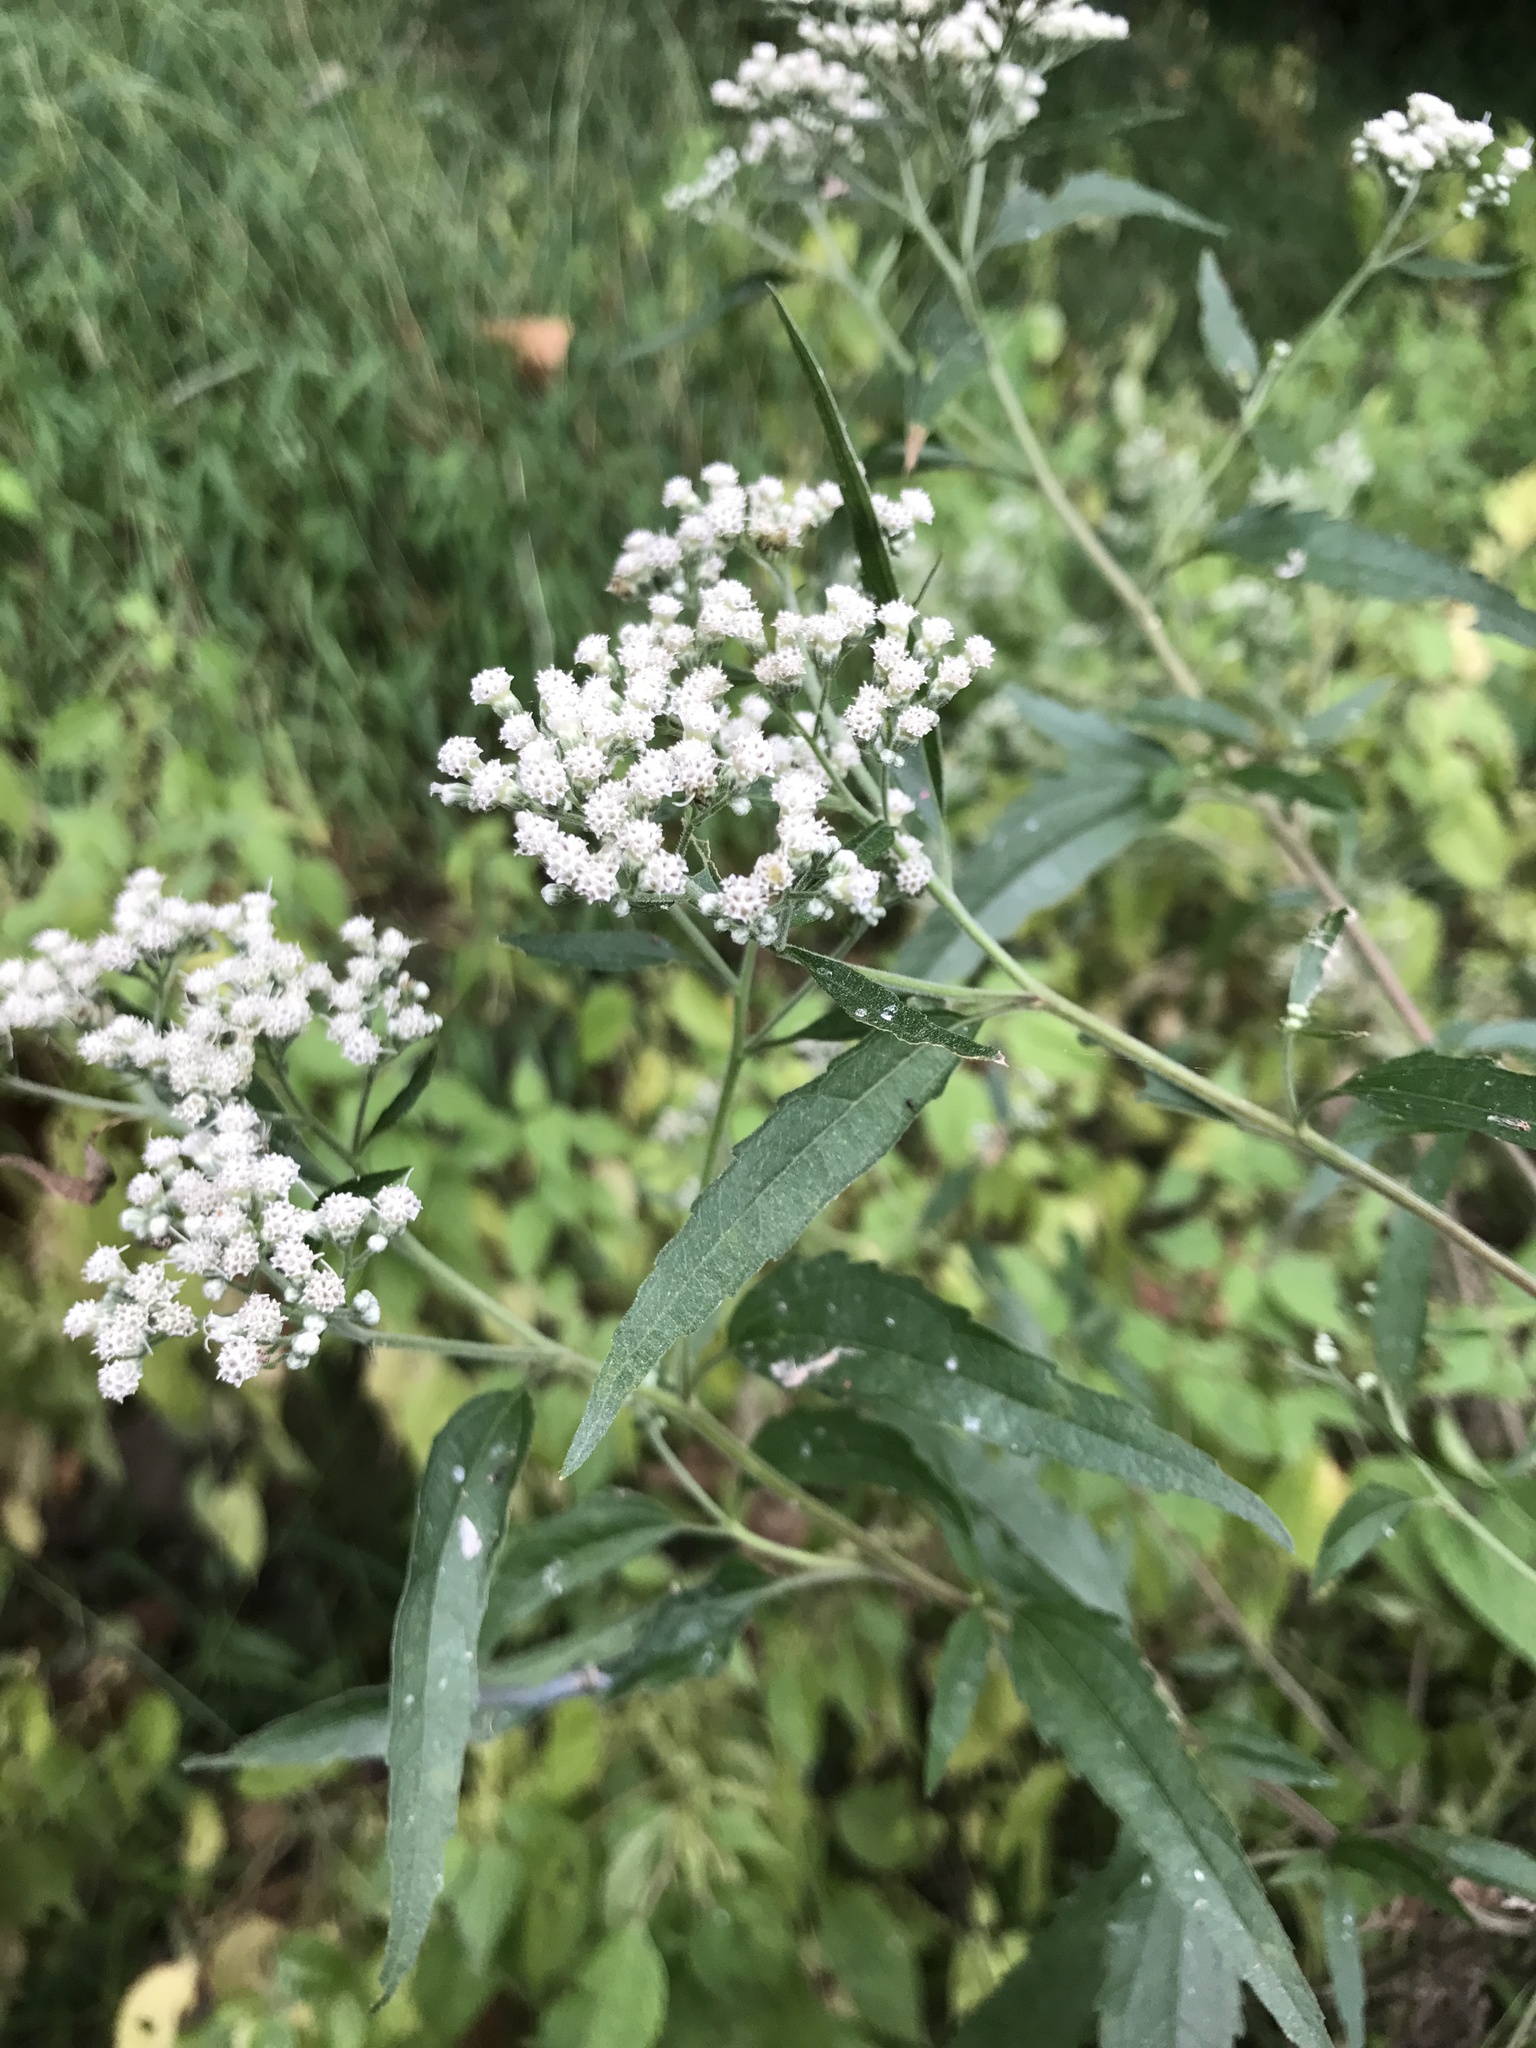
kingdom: Plantae
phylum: Tracheophyta
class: Magnoliopsida
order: Asterales
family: Asteraceae
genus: Eupatorium
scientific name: Eupatorium serotinum
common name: Late boneset
